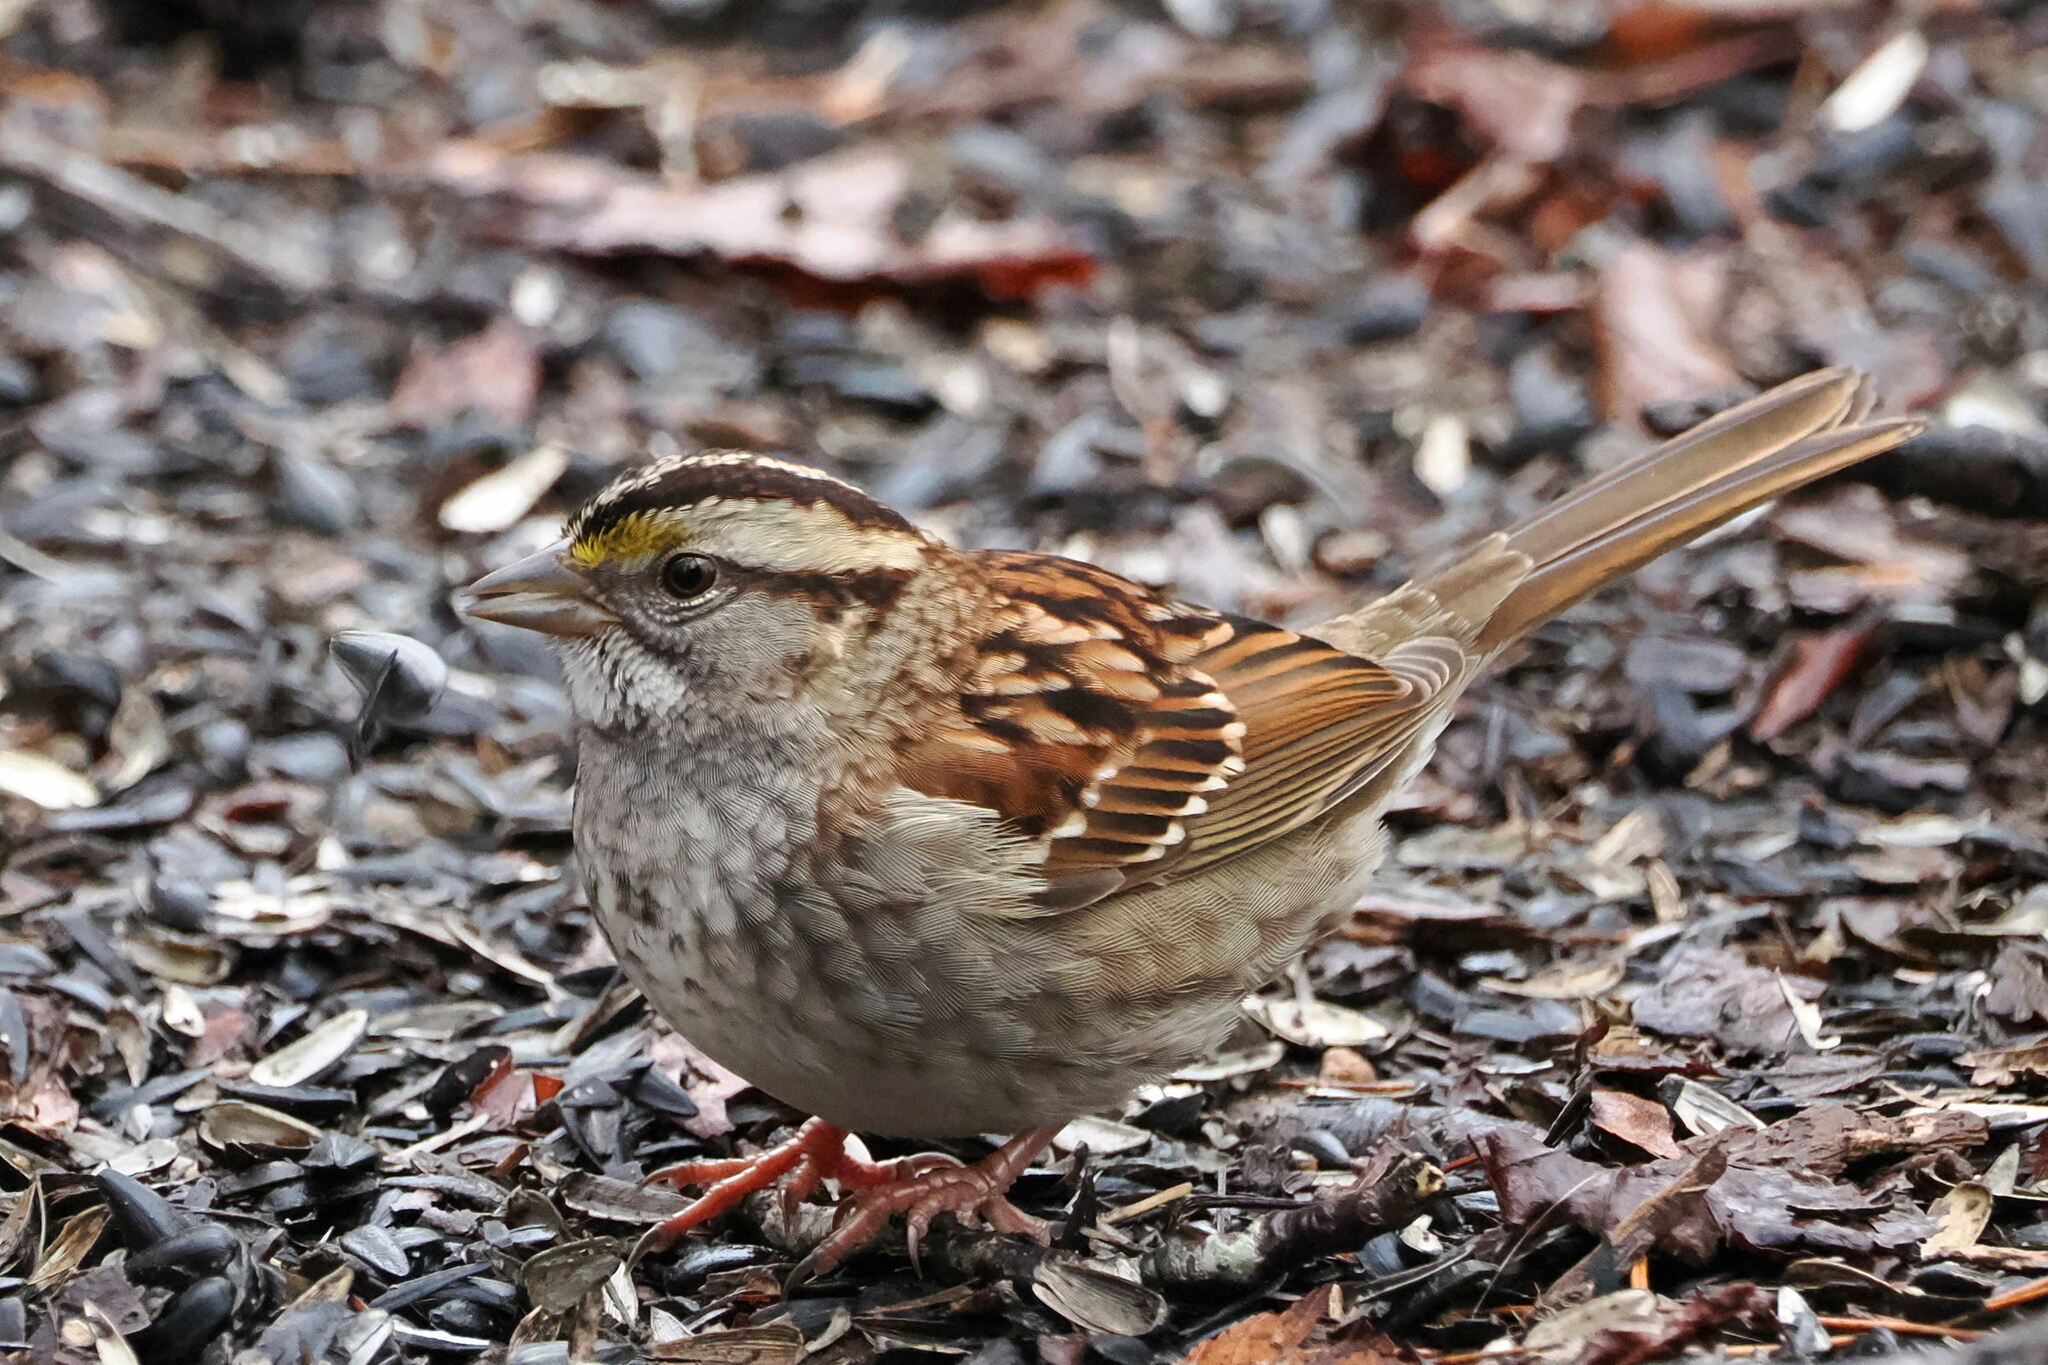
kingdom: Animalia
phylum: Chordata
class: Aves
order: Passeriformes
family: Passerellidae
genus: Zonotrichia
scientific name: Zonotrichia albicollis
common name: White-throated sparrow
